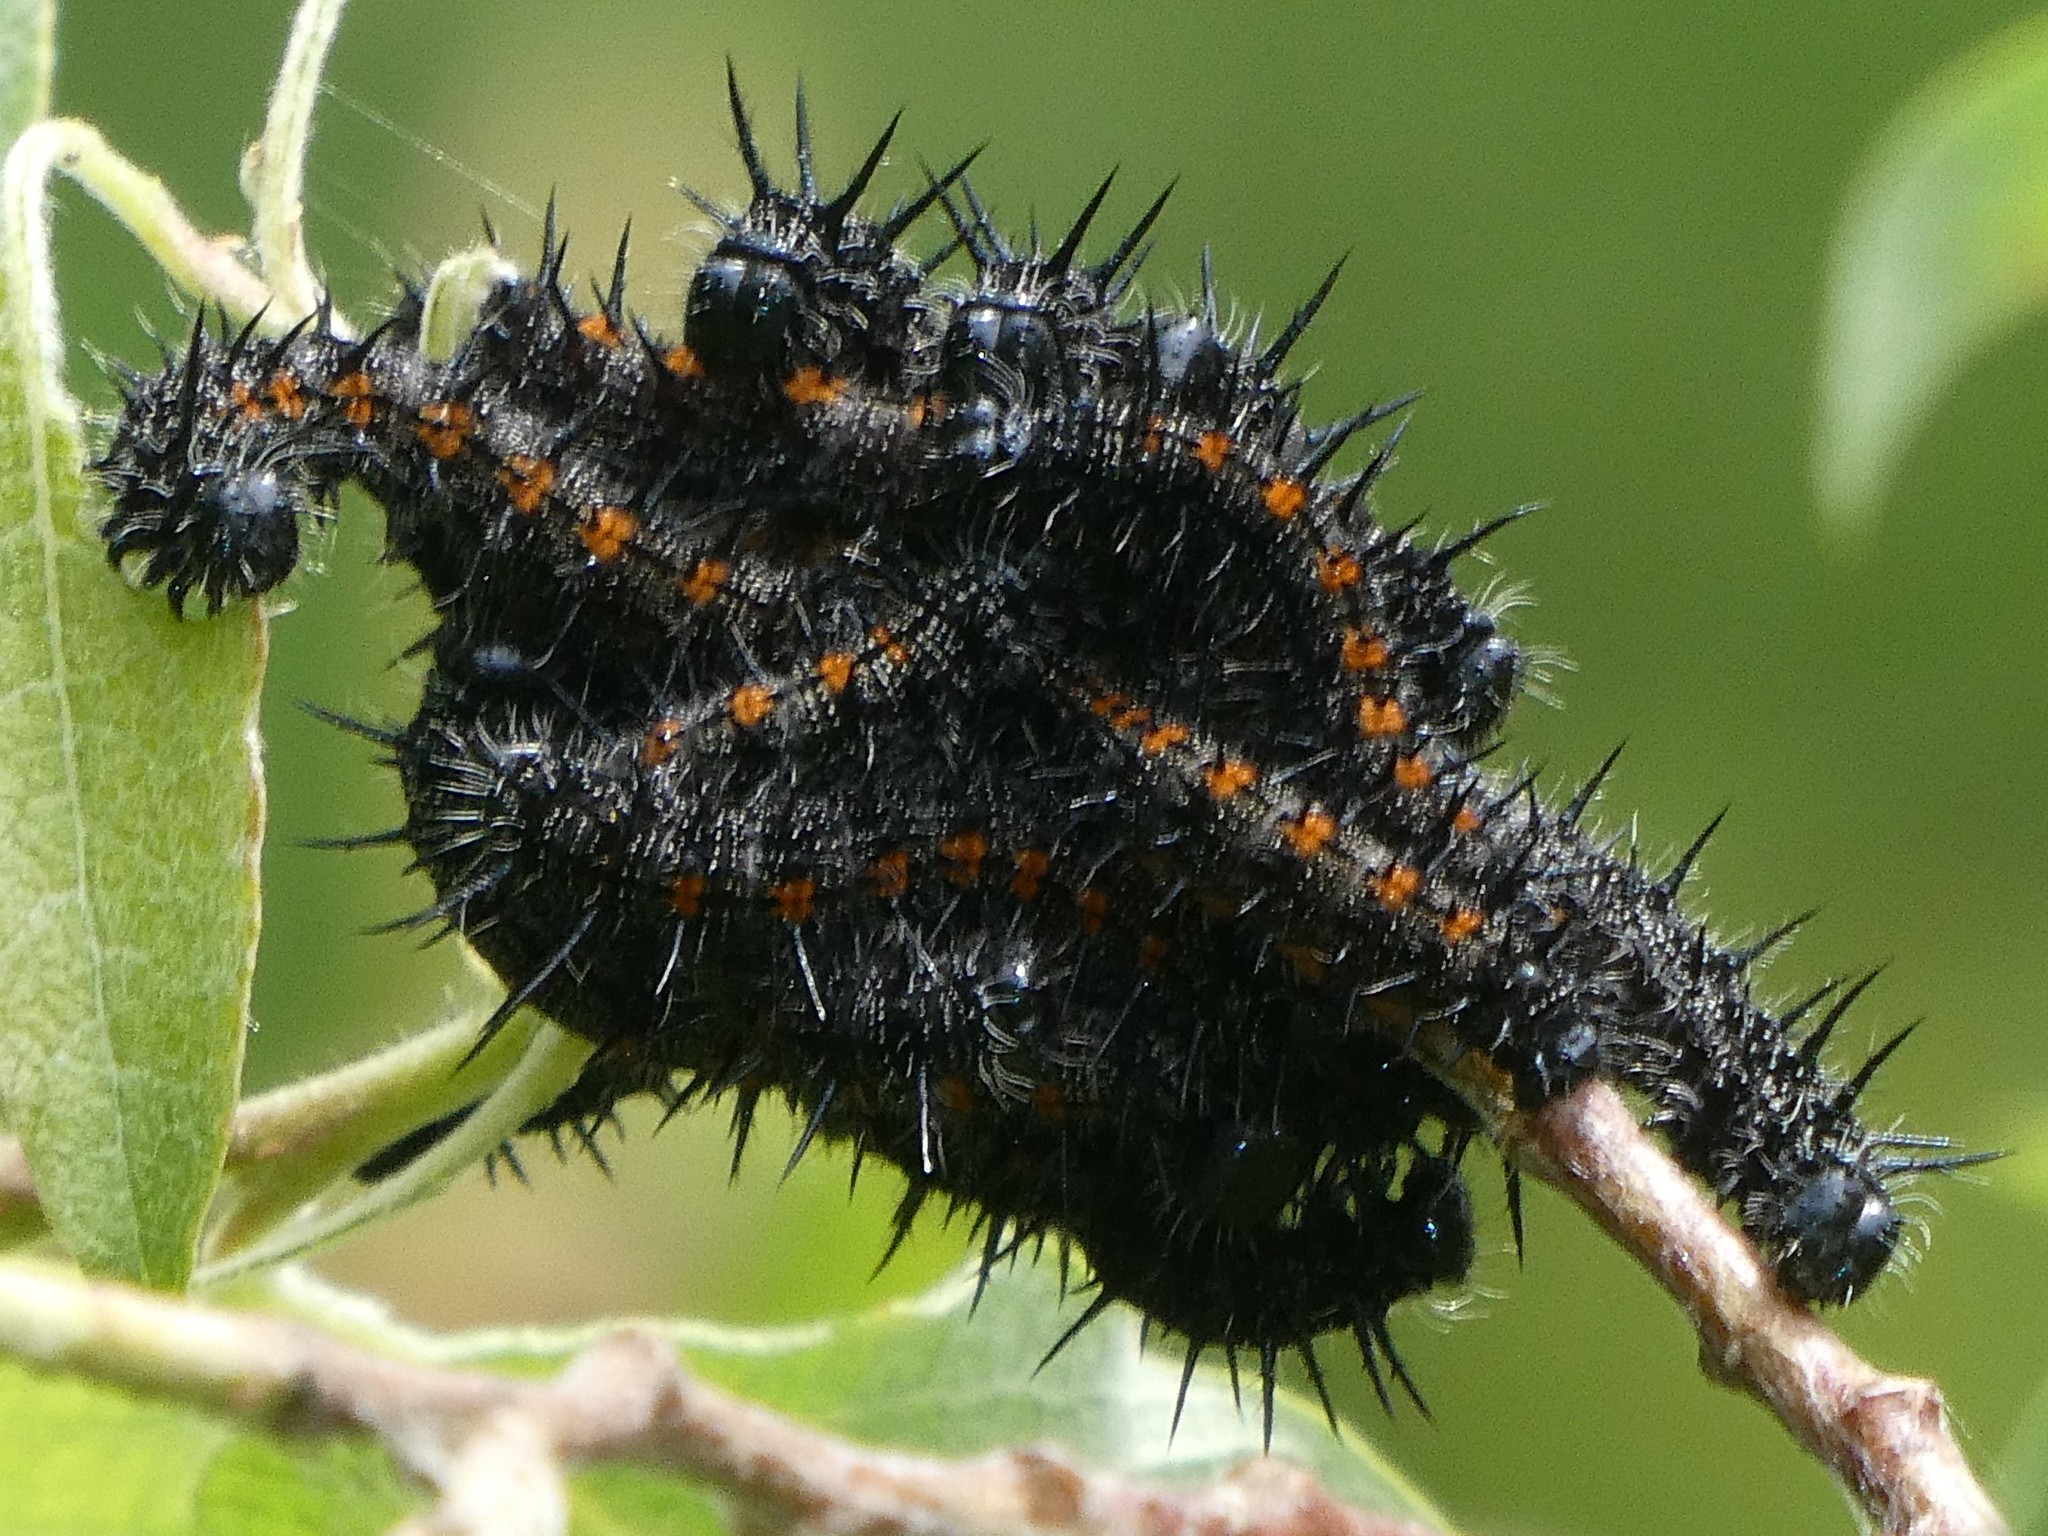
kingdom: Animalia
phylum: Arthropoda
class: Insecta
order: Lepidoptera
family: Nymphalidae
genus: Nymphalis
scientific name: Nymphalis antiopa
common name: Camberwell beauty
